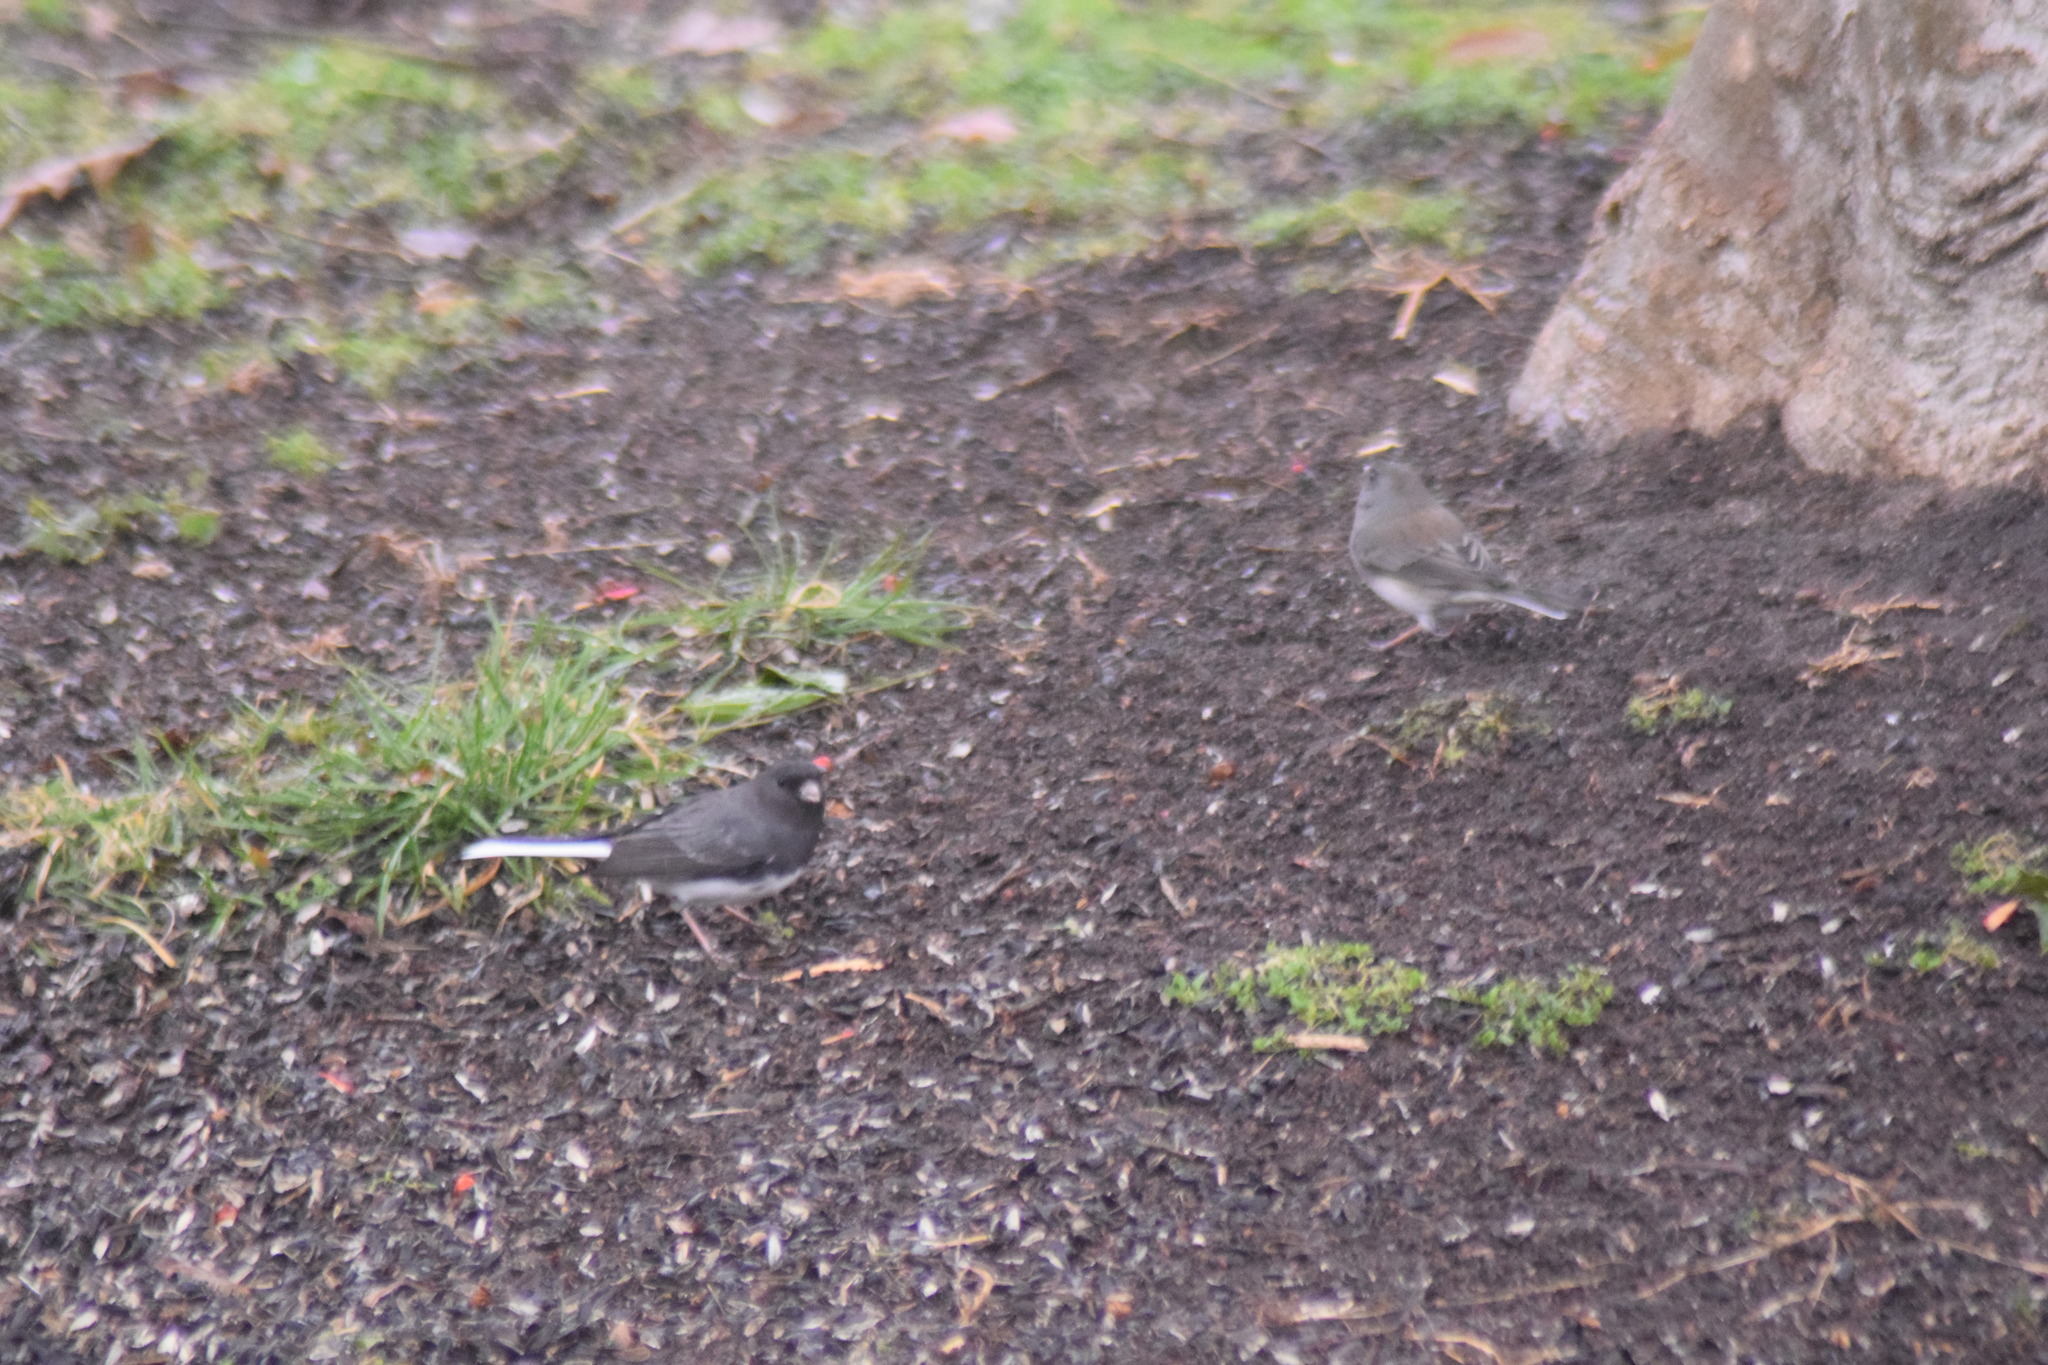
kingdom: Animalia
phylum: Chordata
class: Aves
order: Passeriformes
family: Passerellidae
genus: Junco
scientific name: Junco hyemalis
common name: Dark-eyed junco
